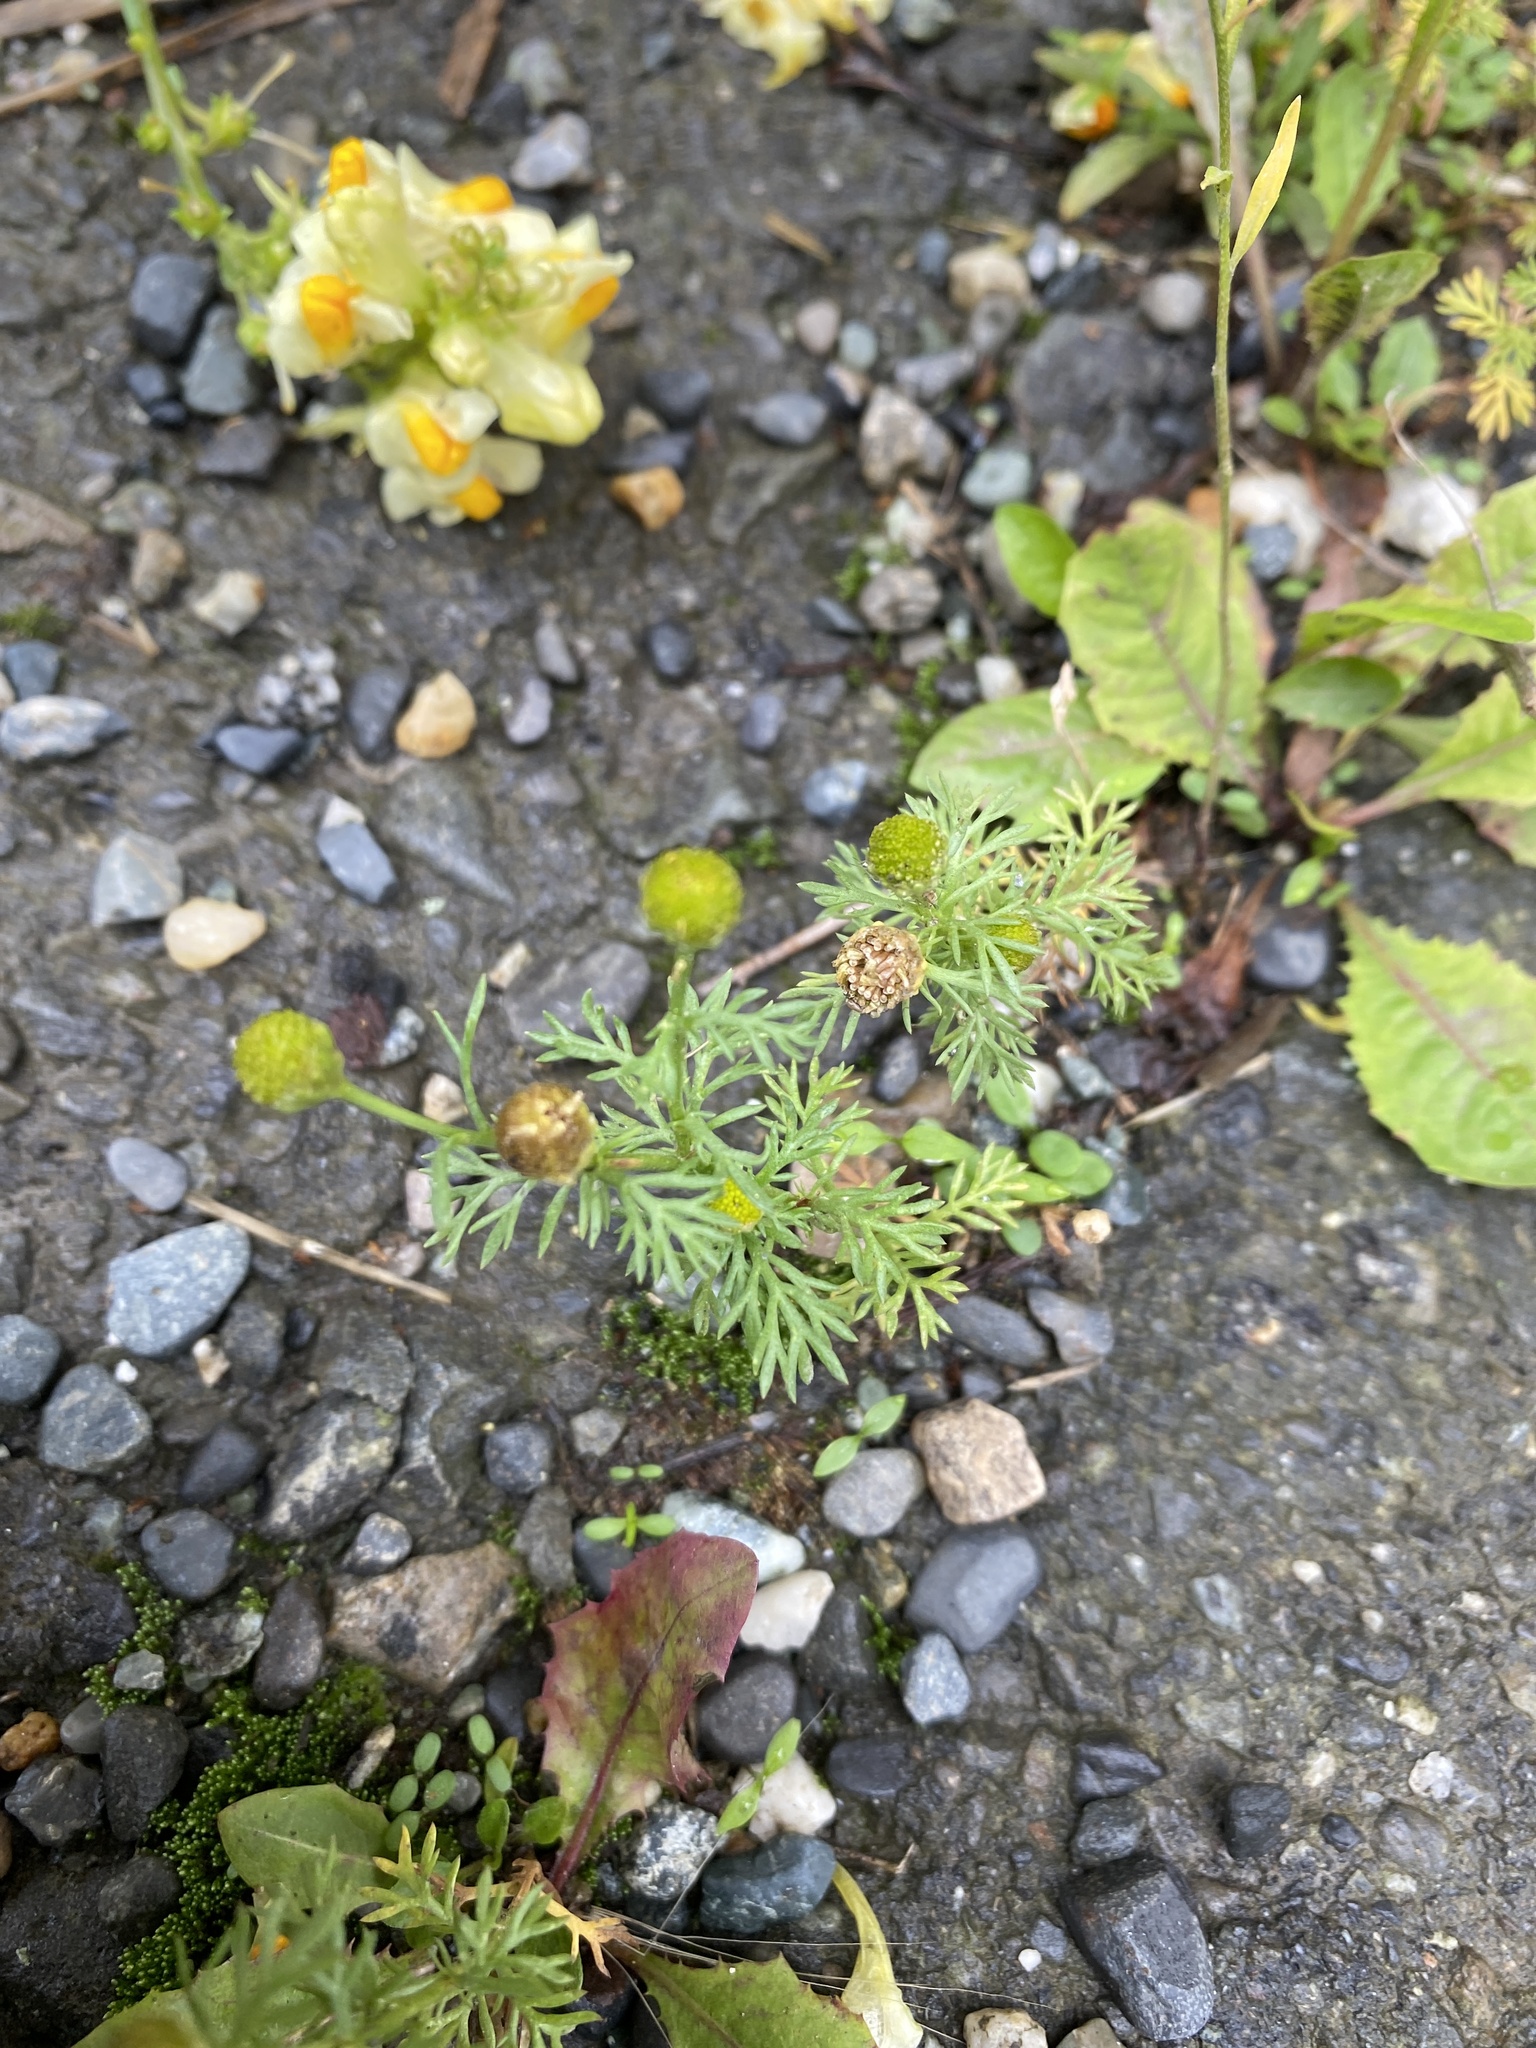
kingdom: Plantae
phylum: Tracheophyta
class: Magnoliopsida
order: Asterales
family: Asteraceae
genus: Matricaria
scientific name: Matricaria discoidea
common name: Disc mayweed
